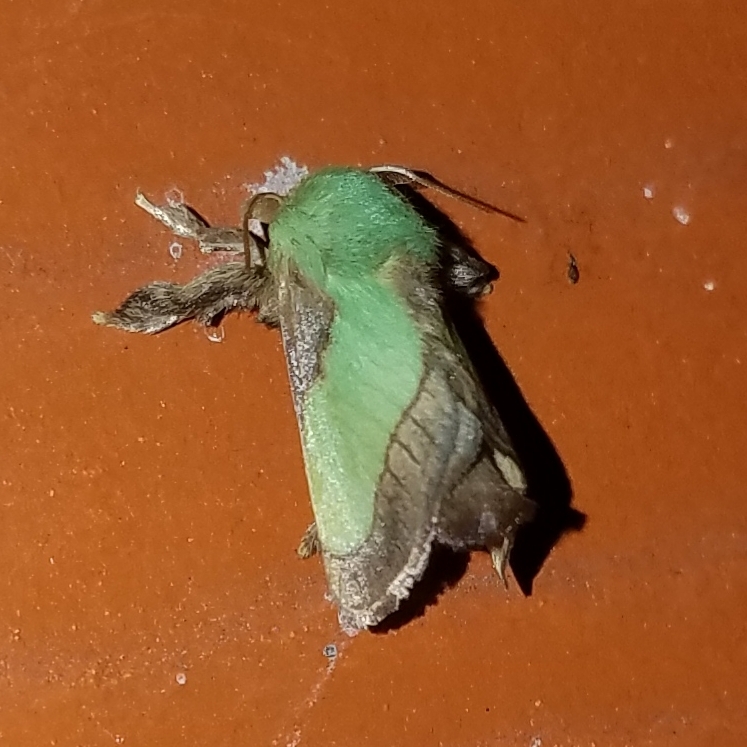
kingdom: Animalia
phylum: Arthropoda
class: Insecta
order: Lepidoptera
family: Limacodidae
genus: Parasa
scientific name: Parasa chloris
